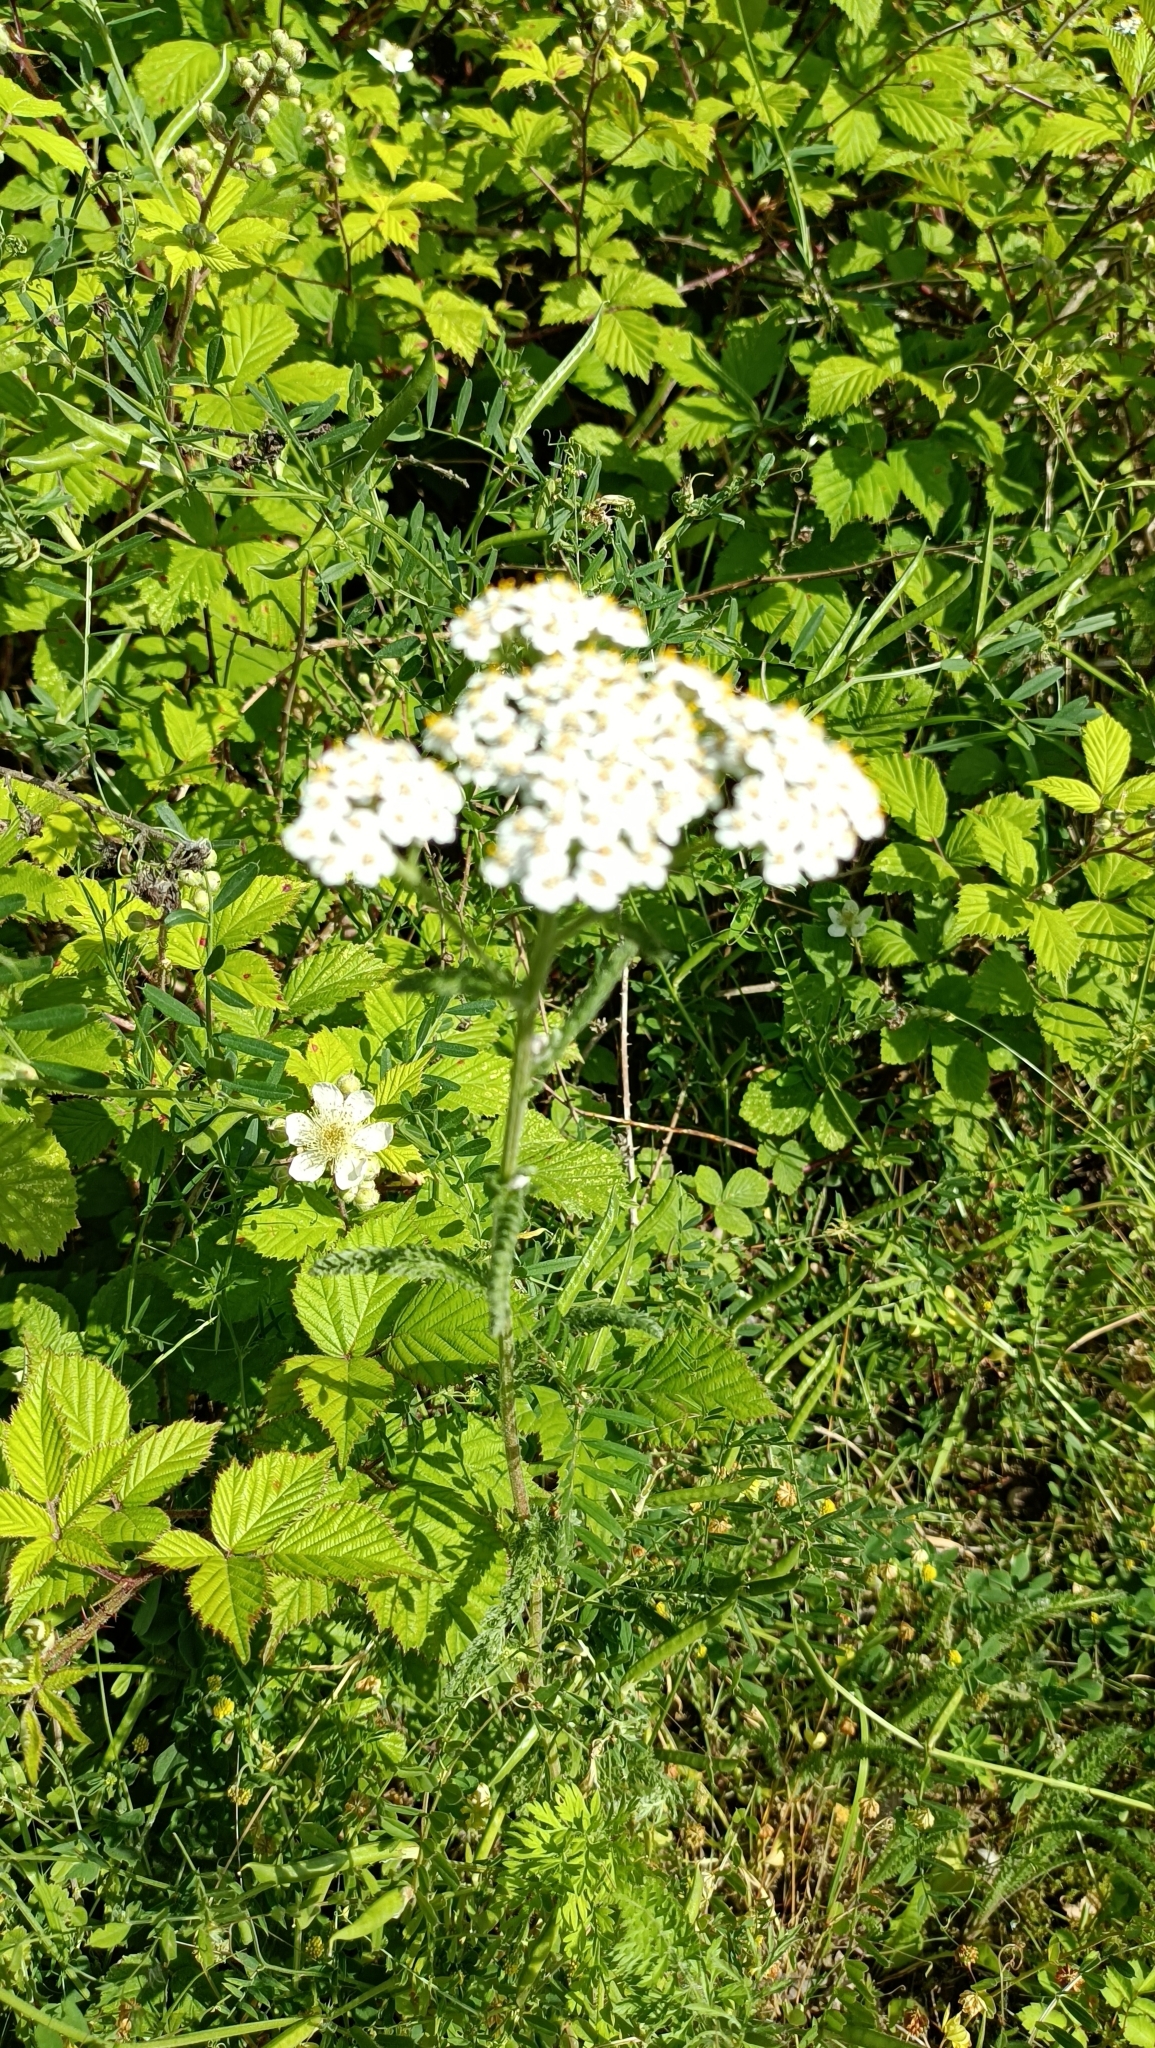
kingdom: Plantae
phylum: Tracheophyta
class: Magnoliopsida
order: Asterales
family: Asteraceae
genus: Achillea
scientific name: Achillea millefolium
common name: Yarrow
